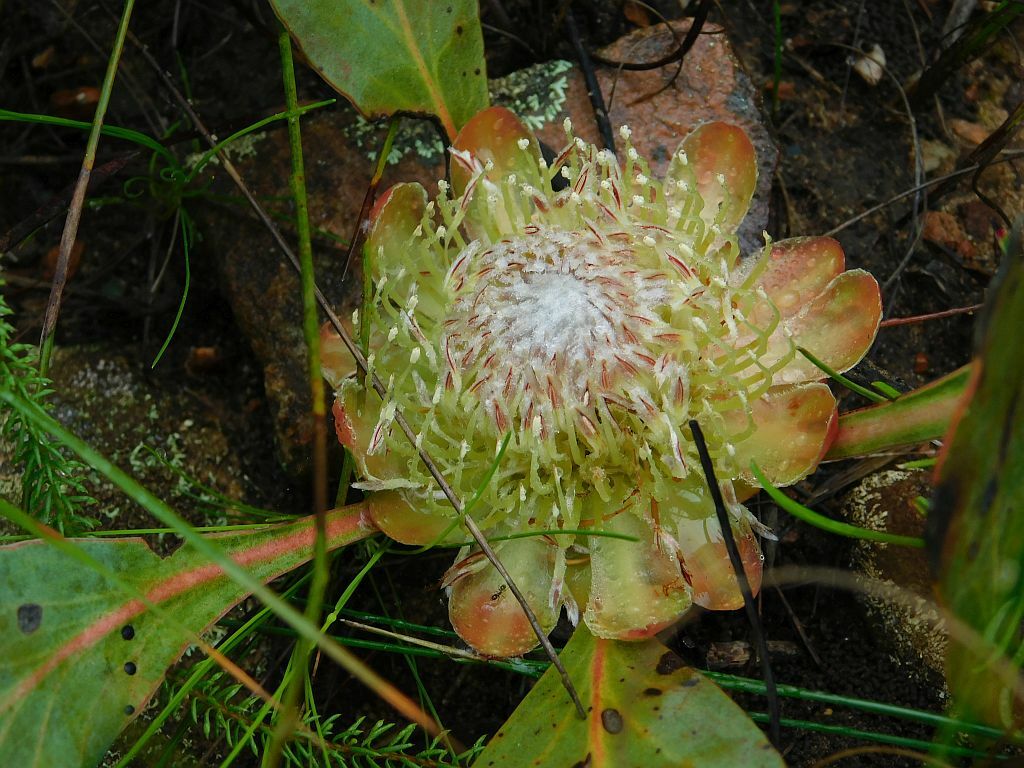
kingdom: Plantae
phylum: Tracheophyta
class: Magnoliopsida
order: Proteales
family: Proteaceae
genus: Protea
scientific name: Protea acaulos
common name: Common ground sugarbush
